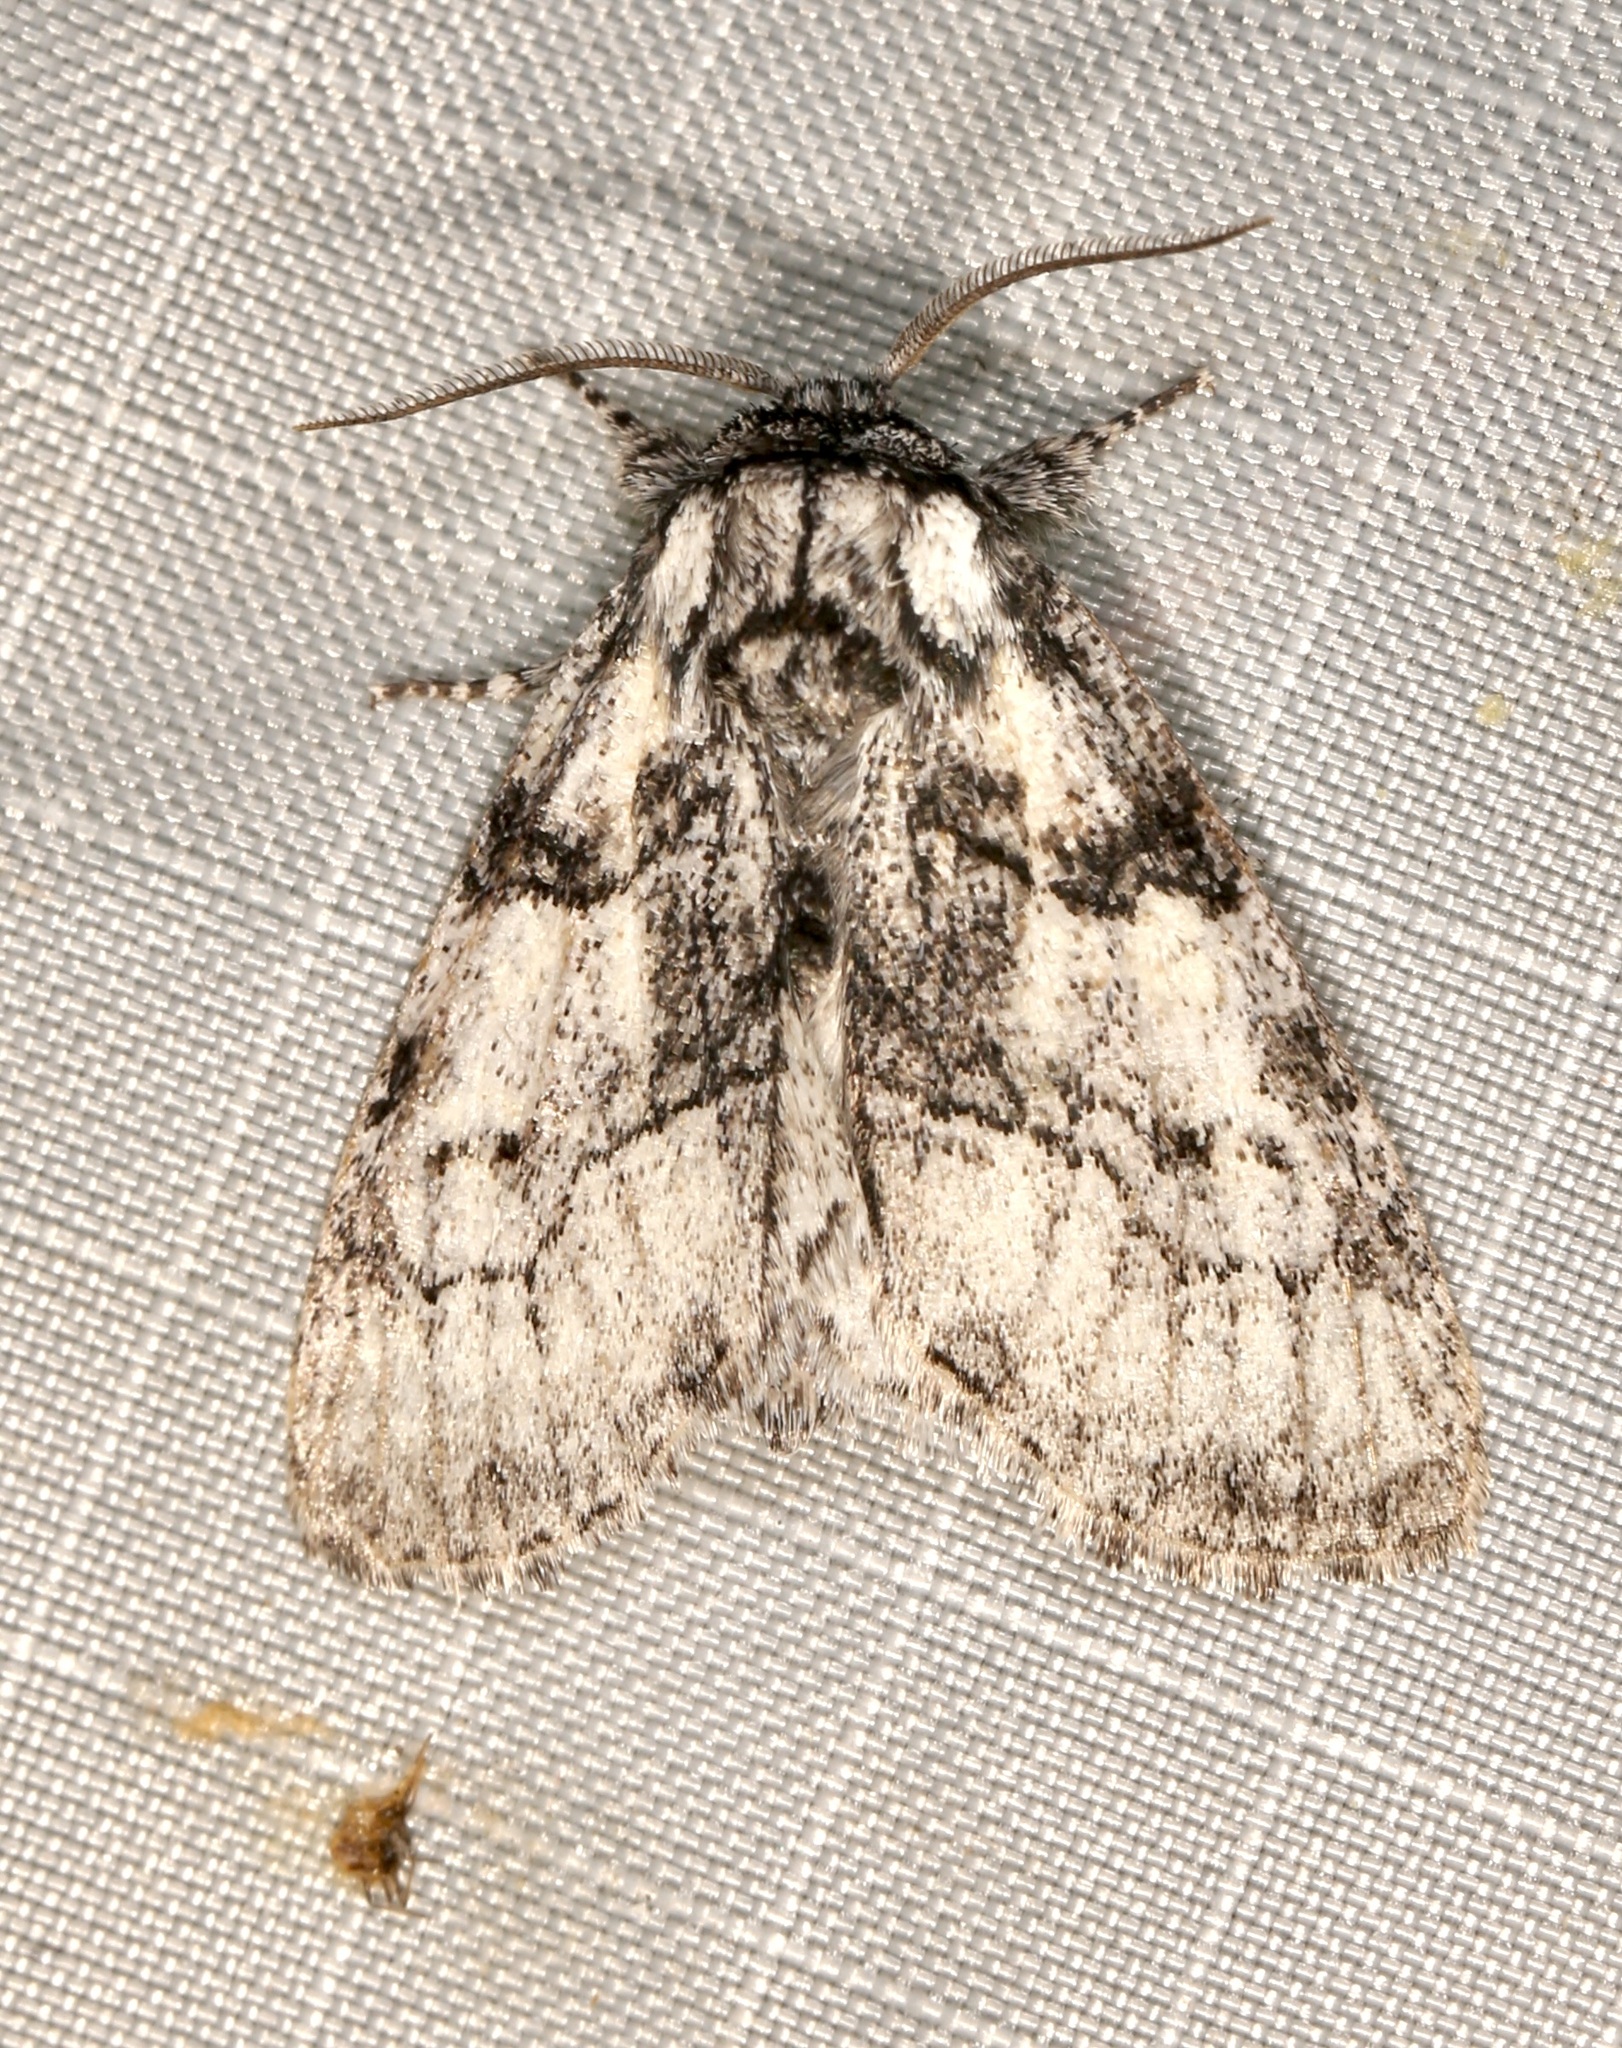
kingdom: Animalia
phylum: Arthropoda
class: Insecta
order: Lepidoptera
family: Noctuidae
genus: Raphia
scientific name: Raphia frater
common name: Brother
